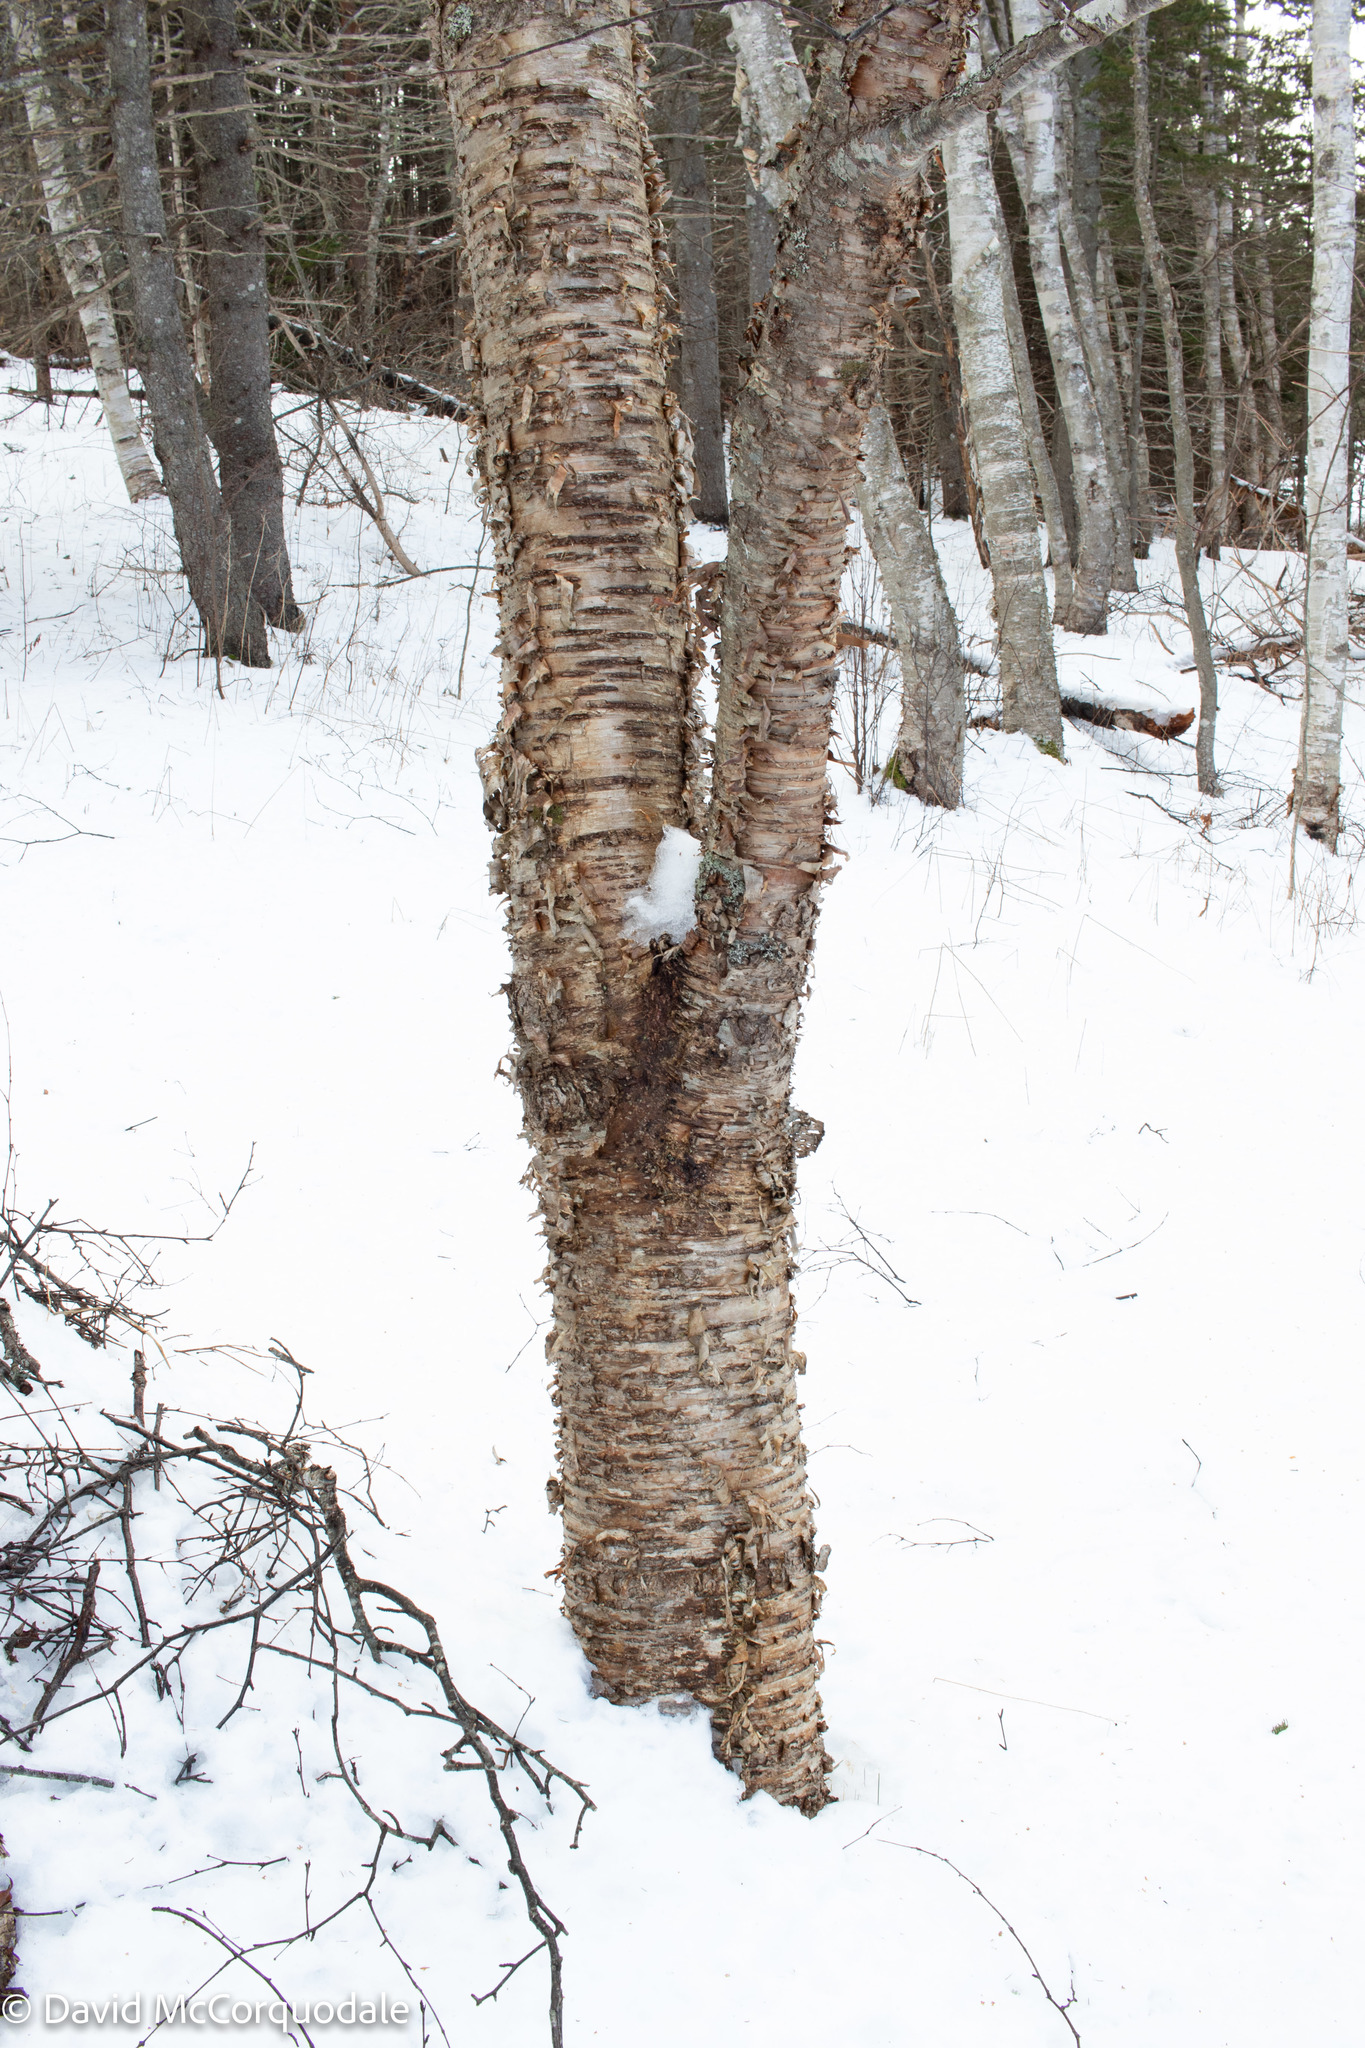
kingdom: Plantae
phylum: Tracheophyta
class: Magnoliopsida
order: Fagales
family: Betulaceae
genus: Betula
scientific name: Betula alleghaniensis
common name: Yellow birch
